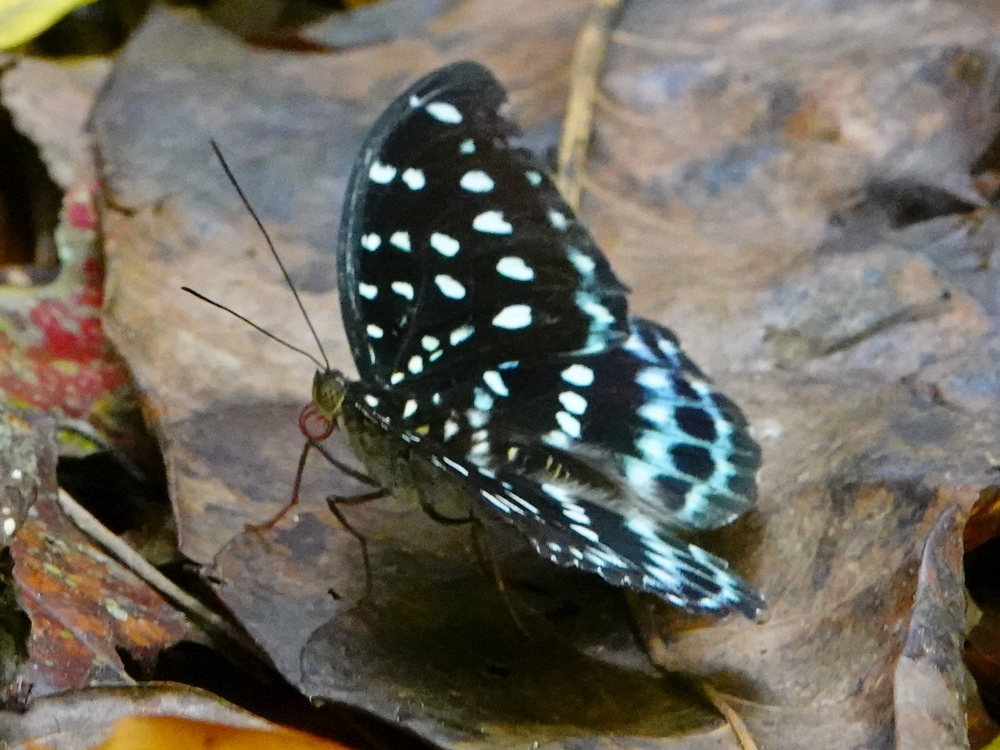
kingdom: Animalia
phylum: Arthropoda
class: Insecta
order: Lepidoptera
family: Nymphalidae
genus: Lexias
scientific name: Lexias
